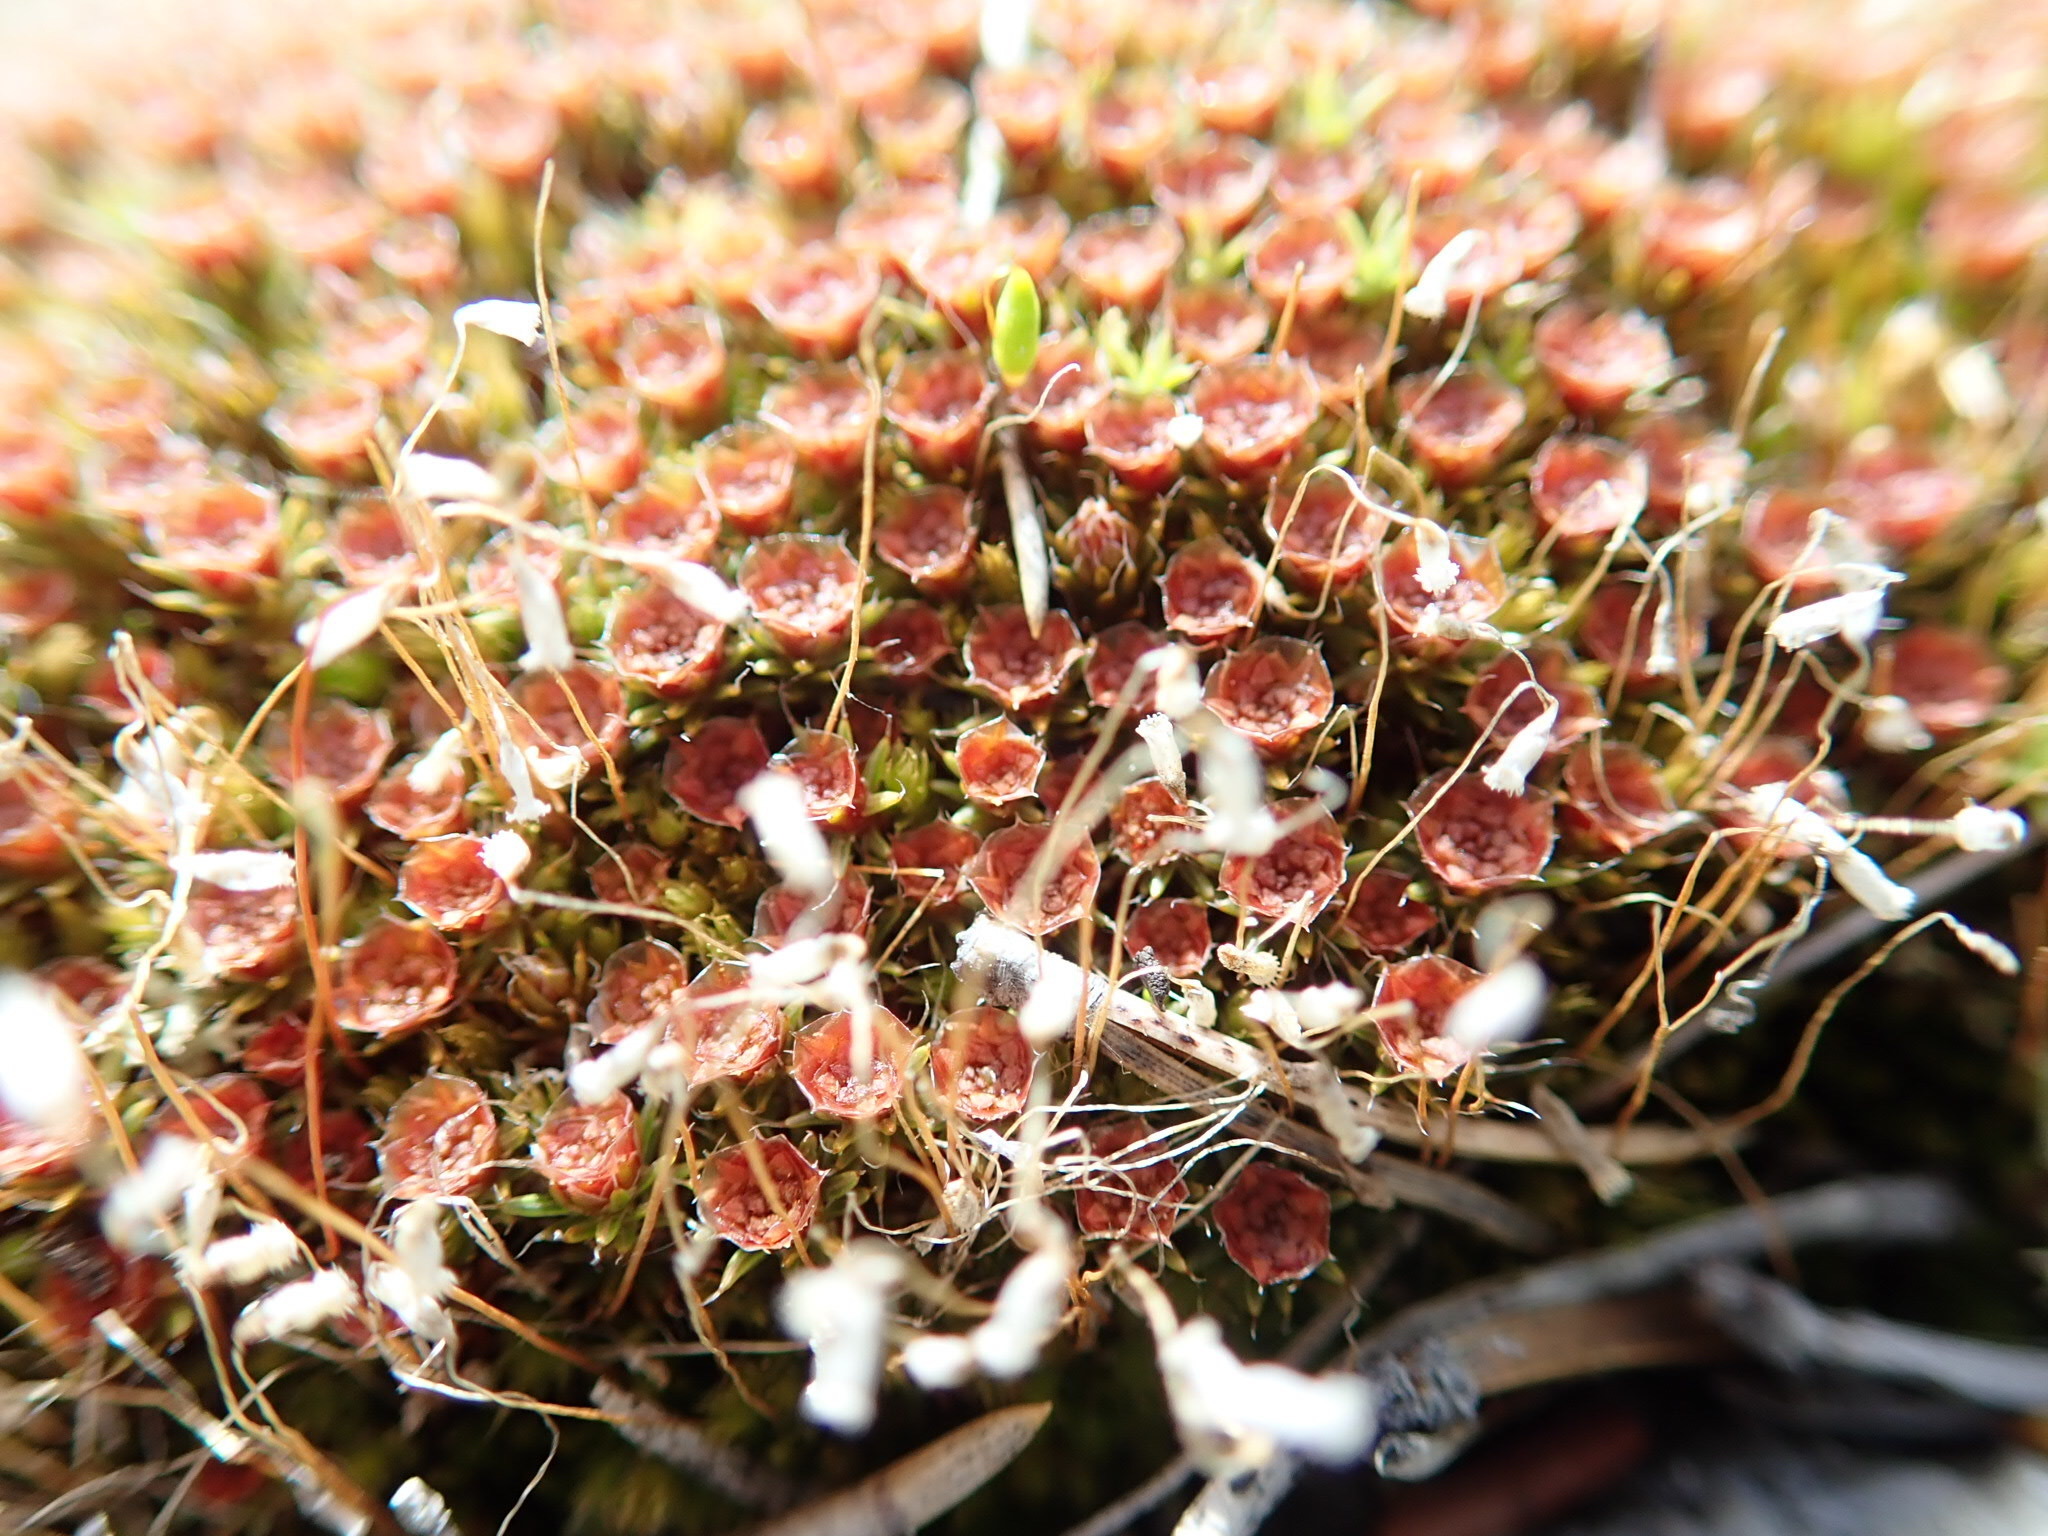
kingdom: Plantae
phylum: Bryophyta
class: Polytrichopsida
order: Polytrichales
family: Polytrichaceae
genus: Polytrichum
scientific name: Polytrichum piliferum
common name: Bristly haircap
